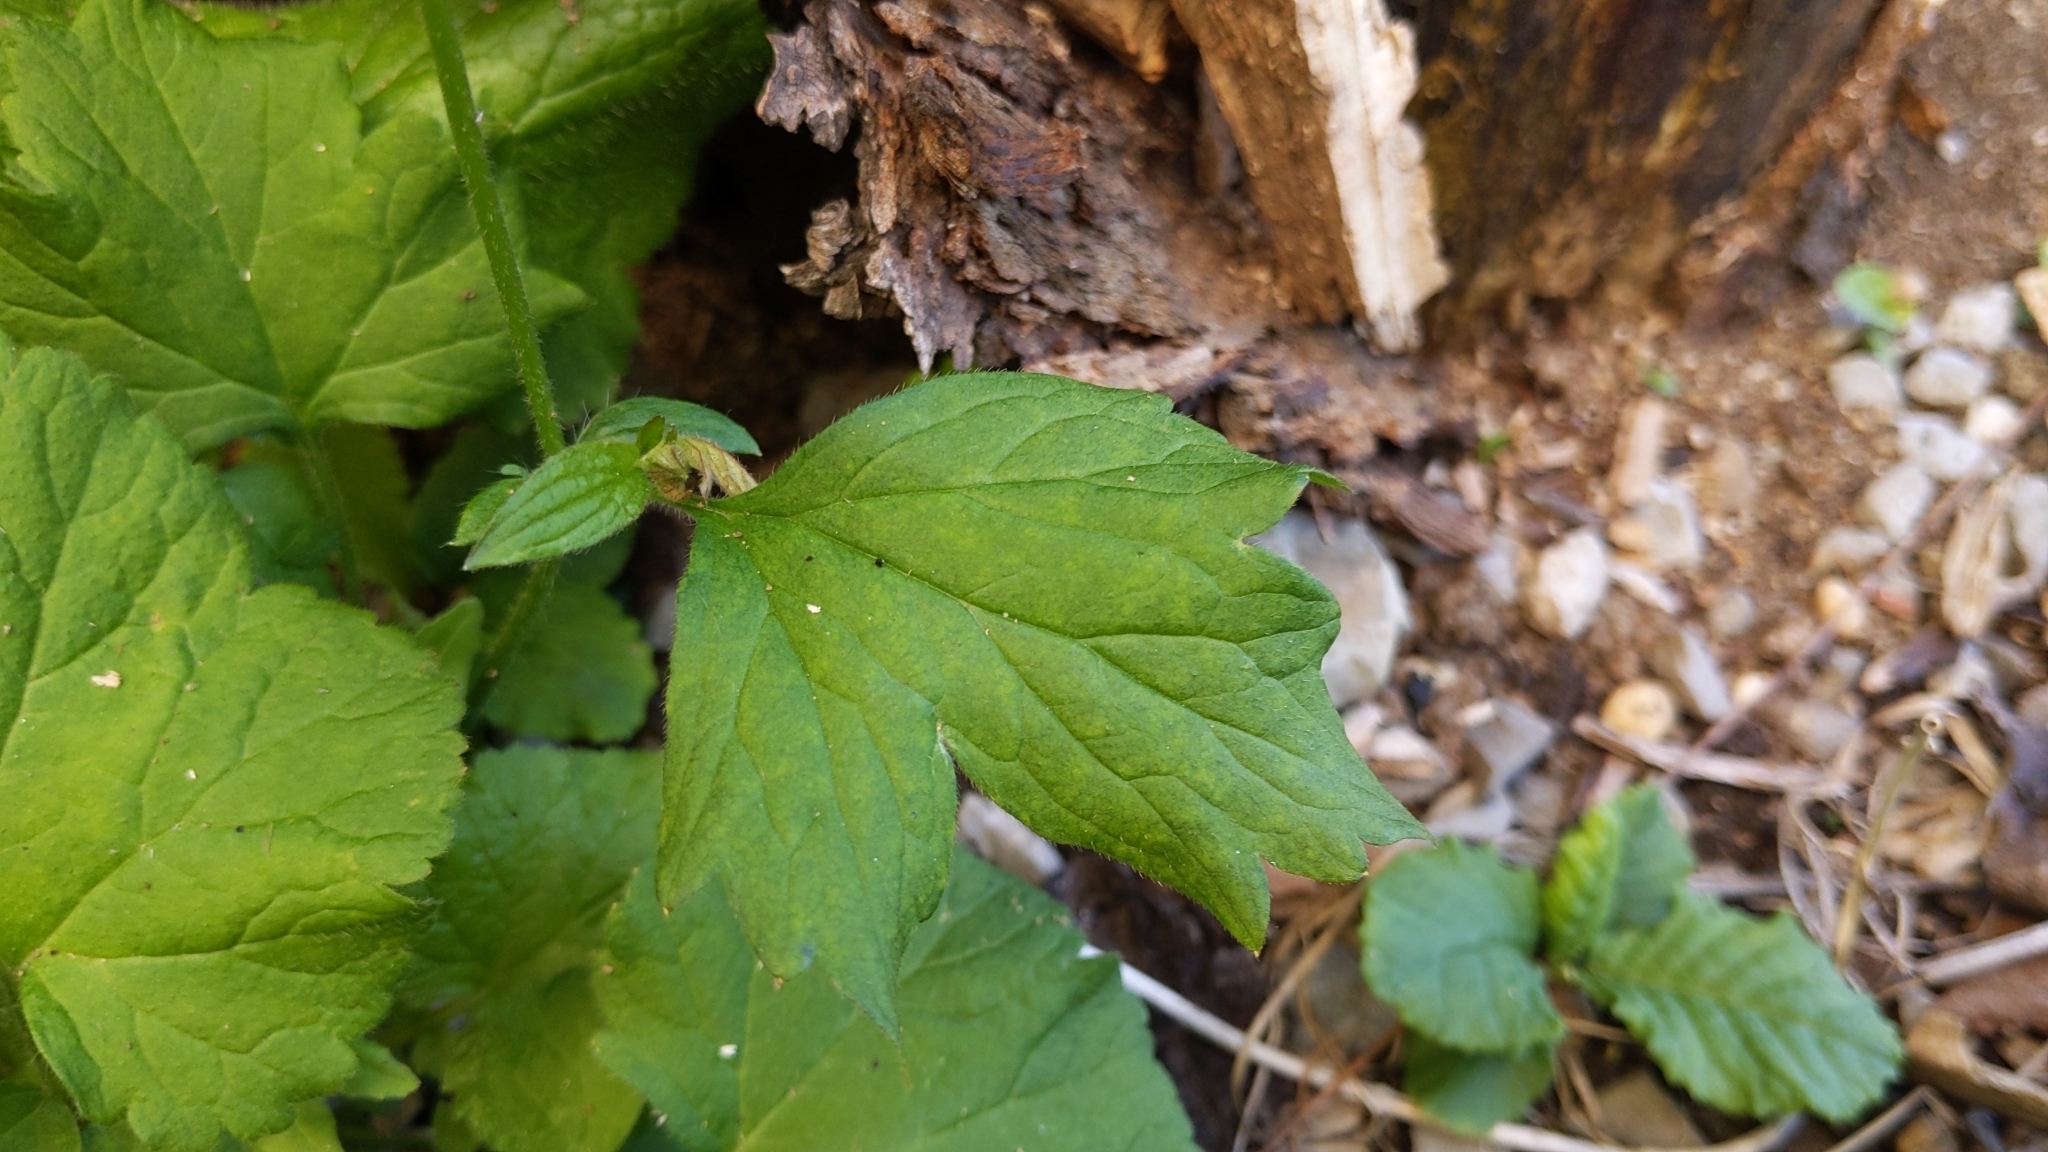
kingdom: Plantae
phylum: Tracheophyta
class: Magnoliopsida
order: Rosales
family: Rosaceae
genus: Geum
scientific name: Geum urbanum
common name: Wood avens
